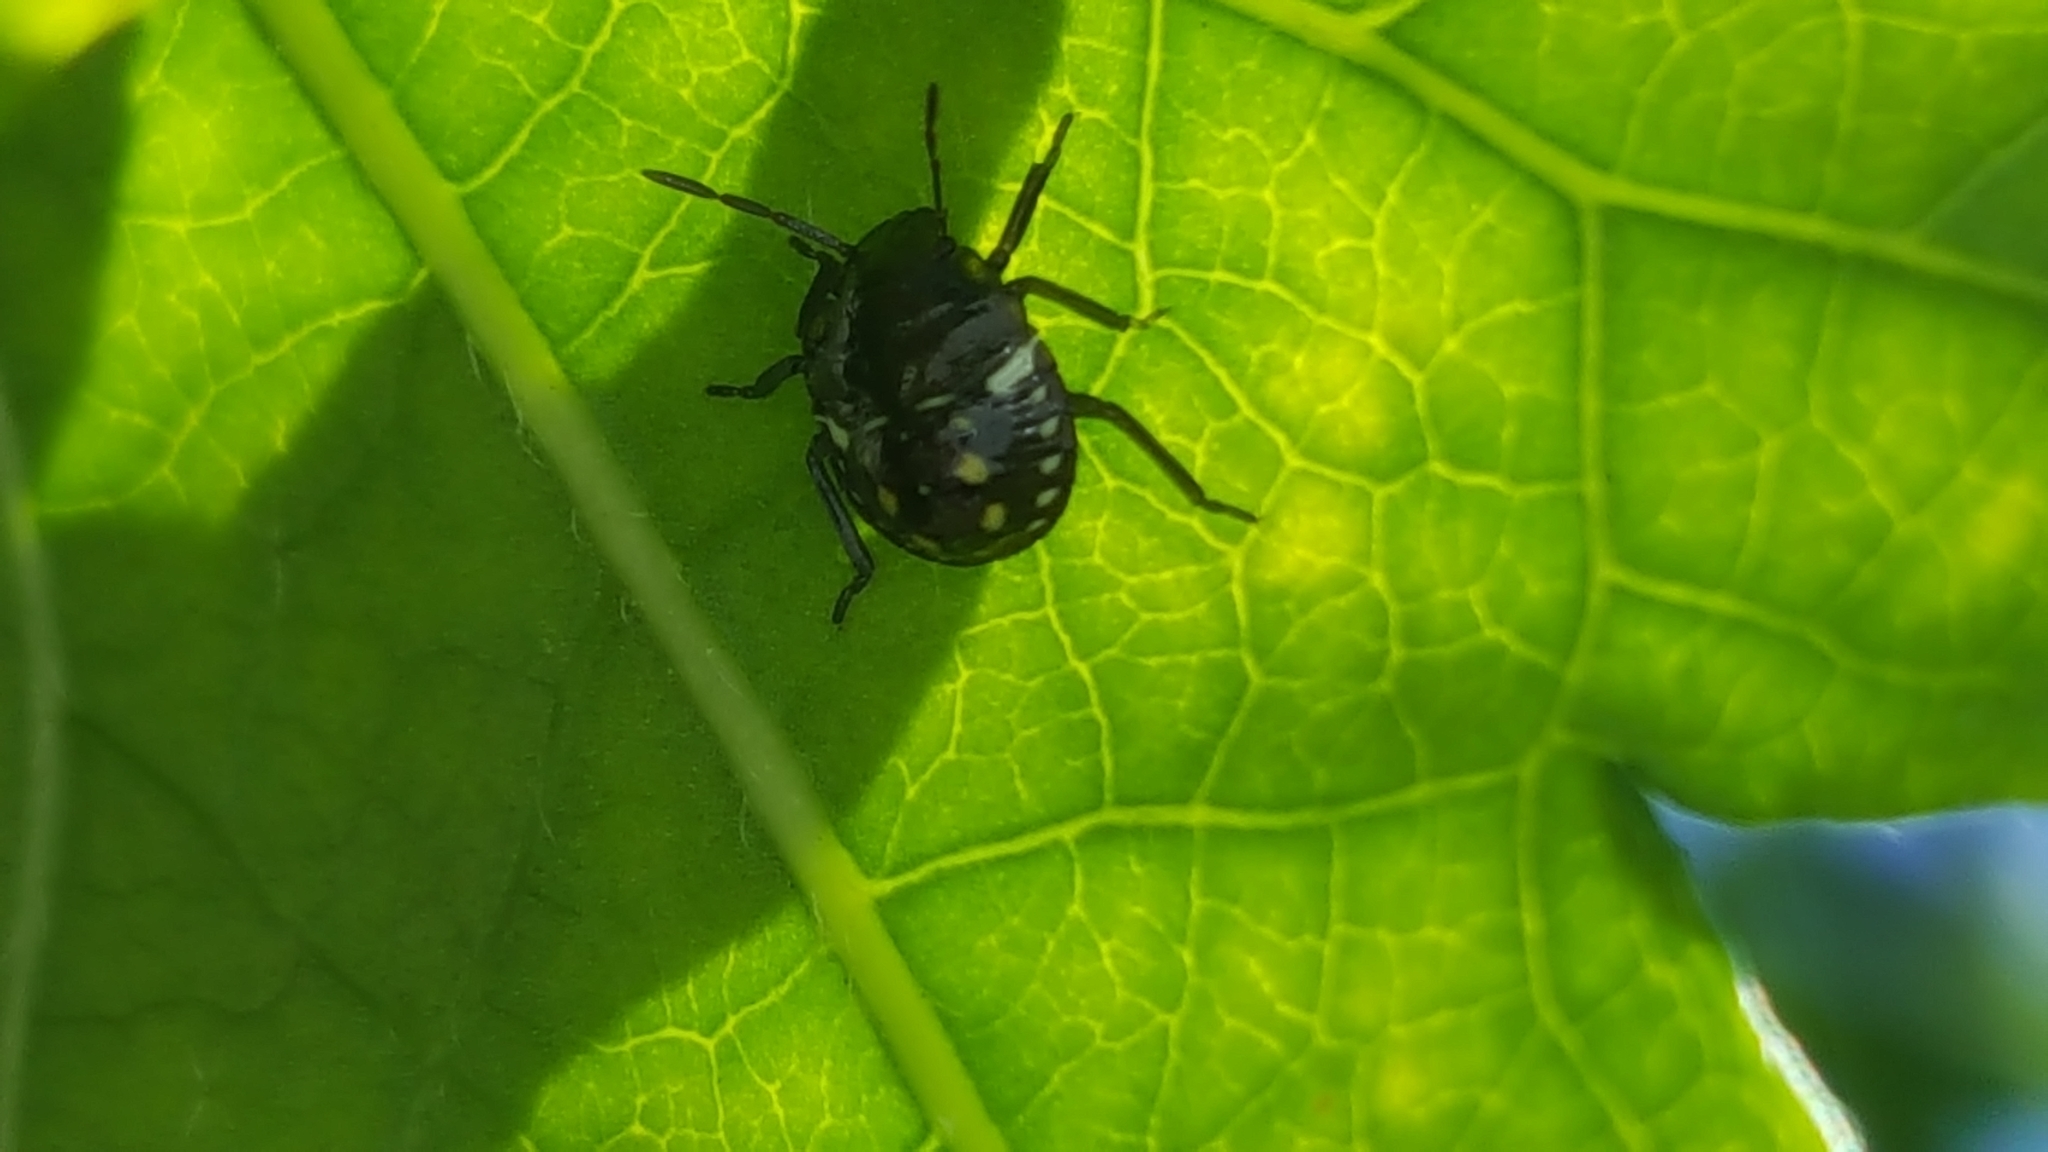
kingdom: Animalia
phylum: Arthropoda
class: Insecta
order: Hemiptera
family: Pentatomidae
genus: Nezara
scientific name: Nezara viridula
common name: Southern green stink bug
